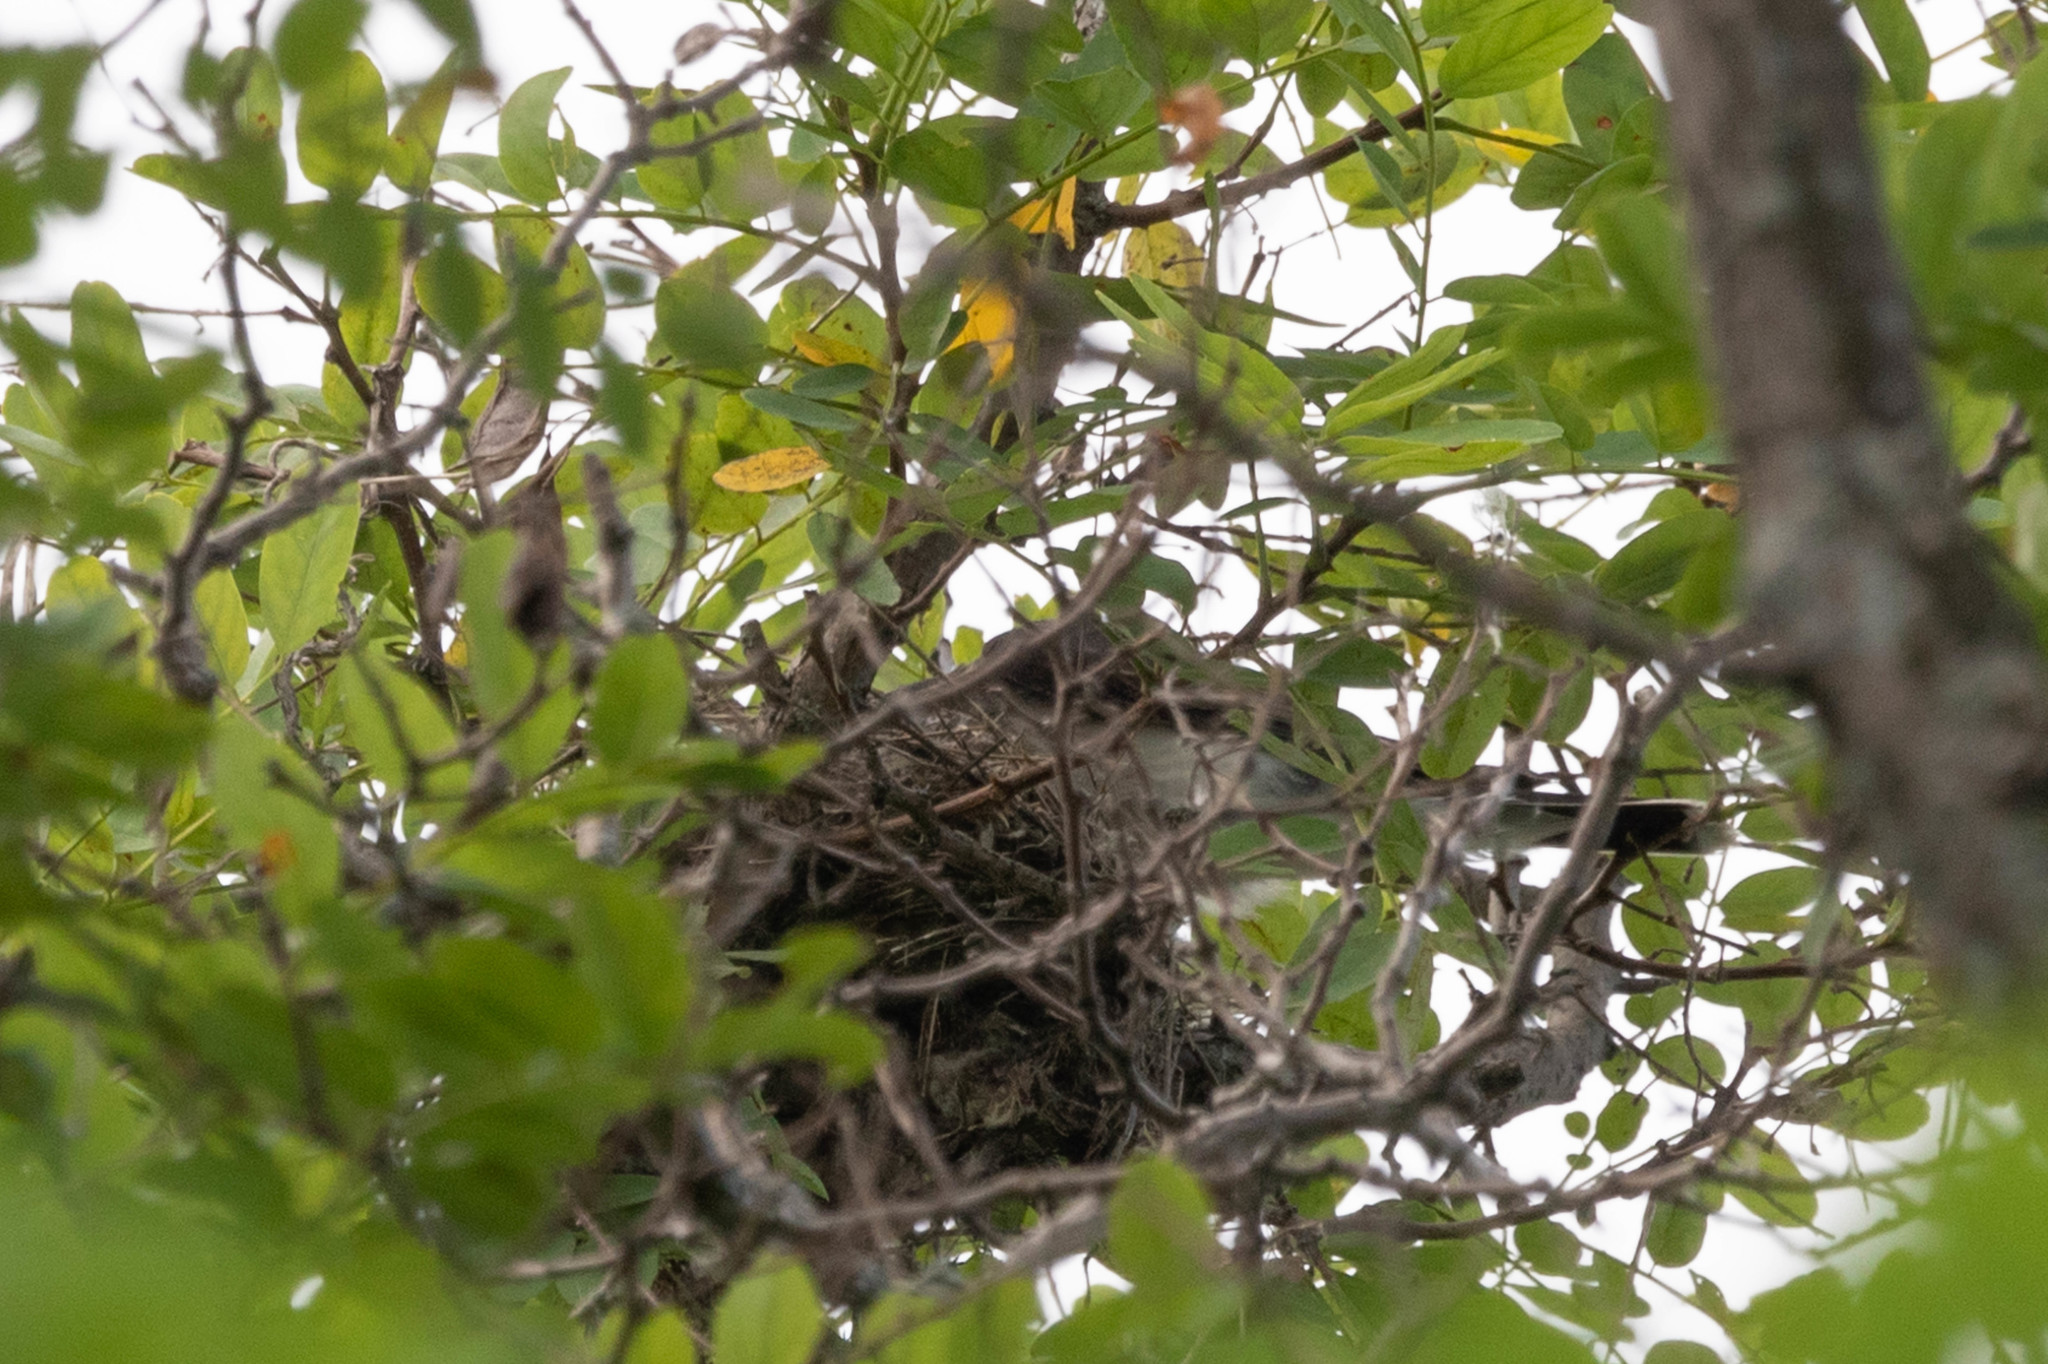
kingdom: Animalia
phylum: Chordata
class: Aves
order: Passeriformes
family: Tyrannidae
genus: Tyrannus
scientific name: Tyrannus tyrannus
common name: Eastern kingbird
